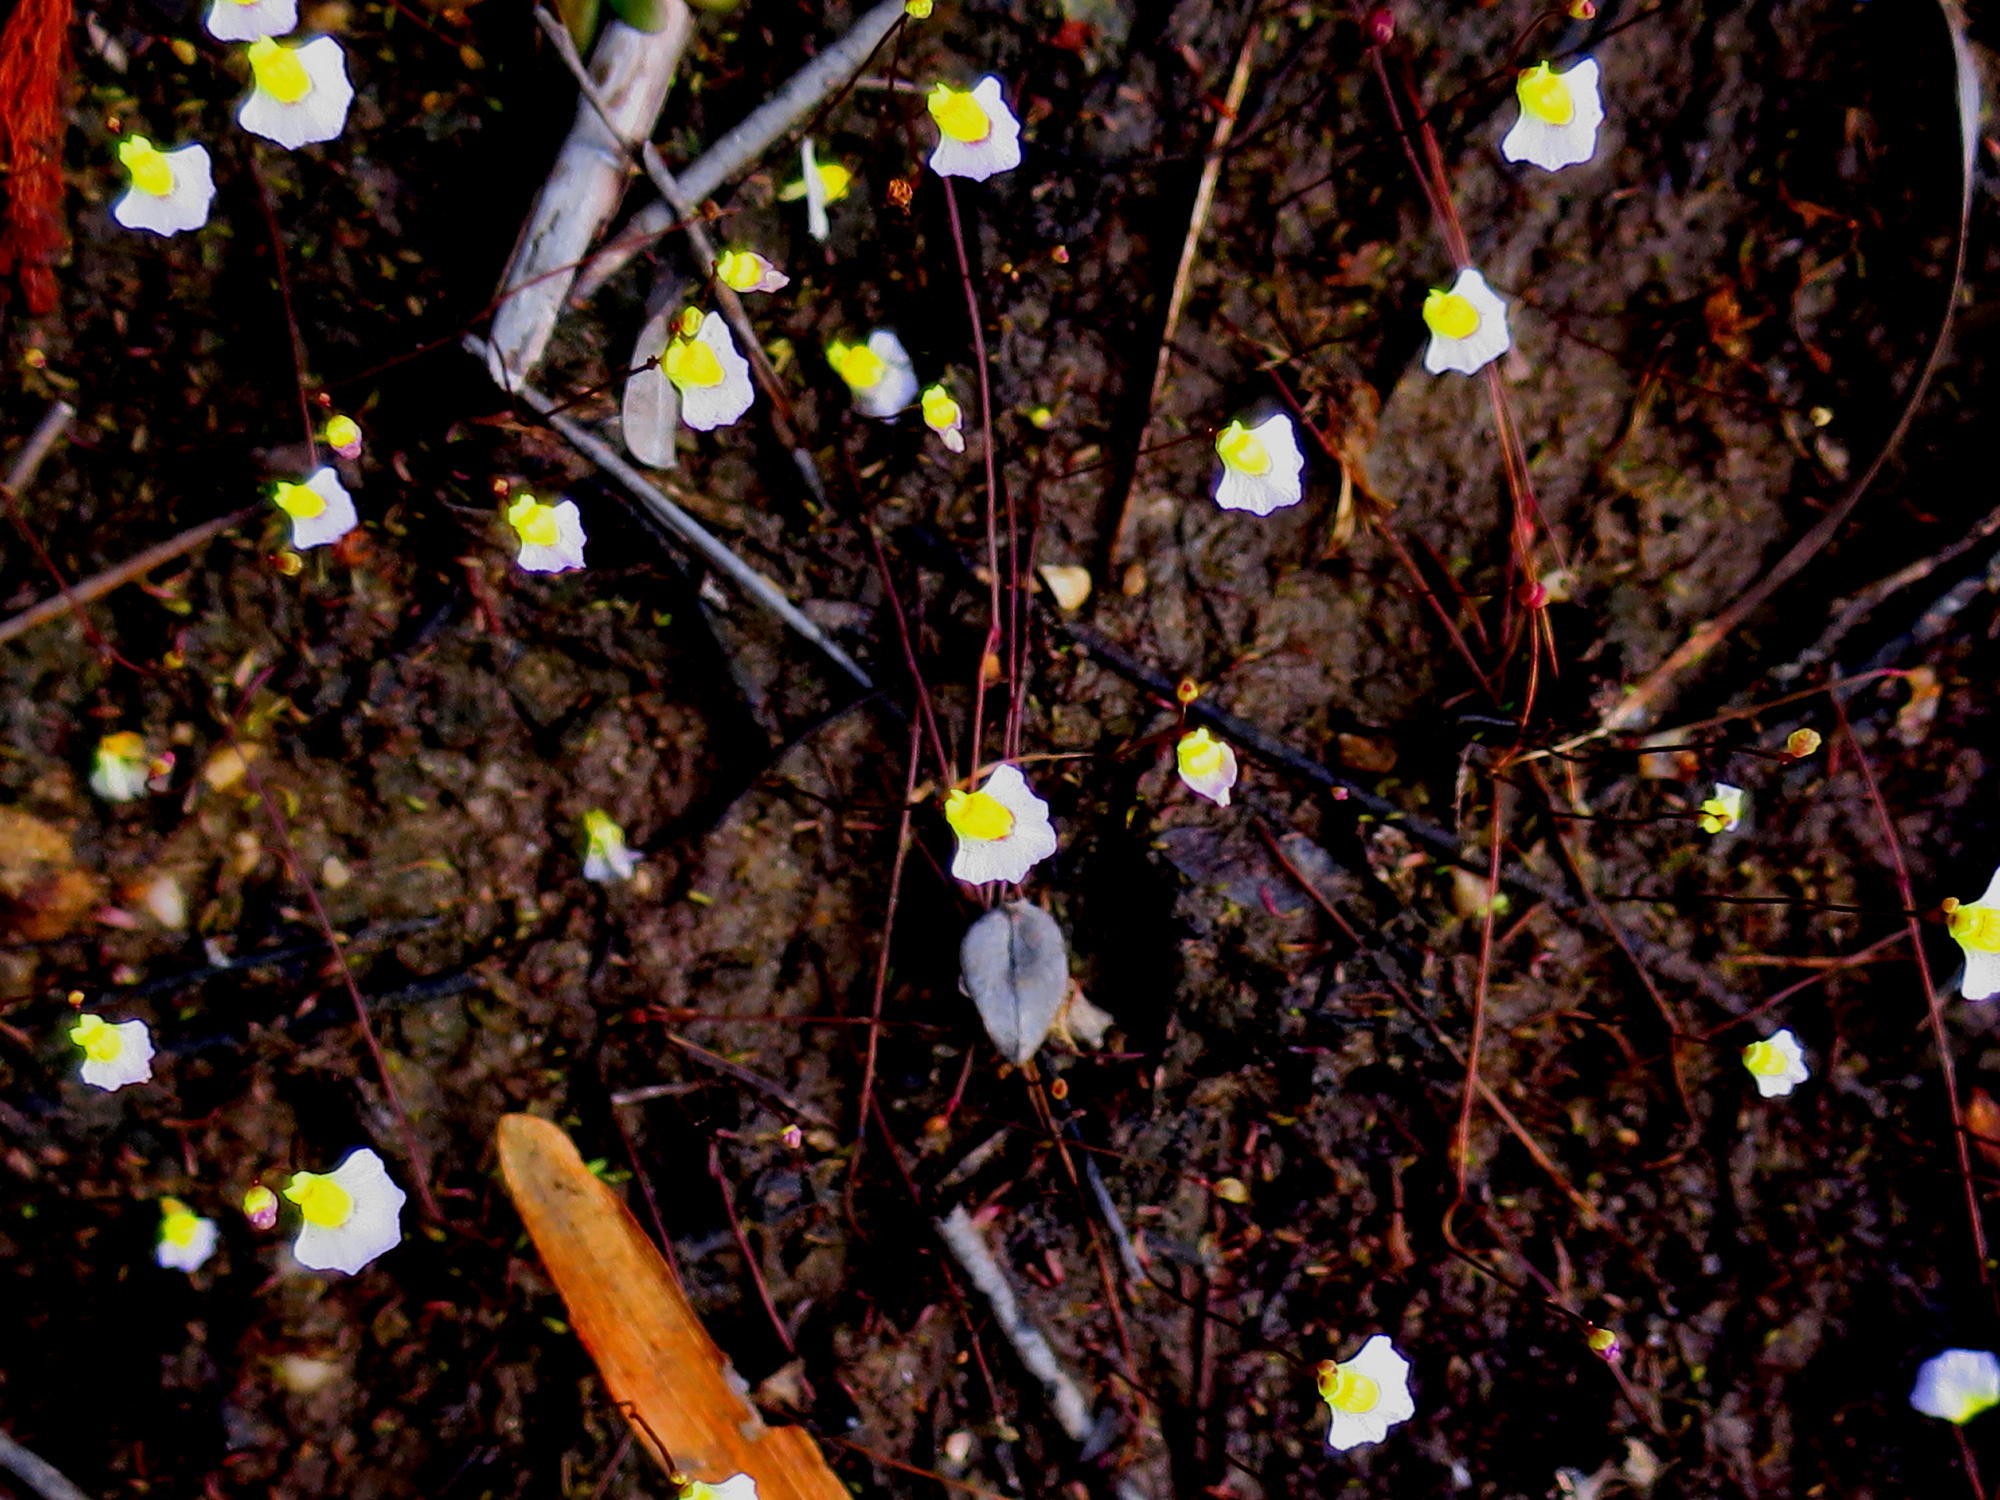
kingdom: Plantae
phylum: Tracheophyta
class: Magnoliopsida
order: Lamiales
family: Lentibulariaceae
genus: Utricularia
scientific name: Utricularia bisquamata
